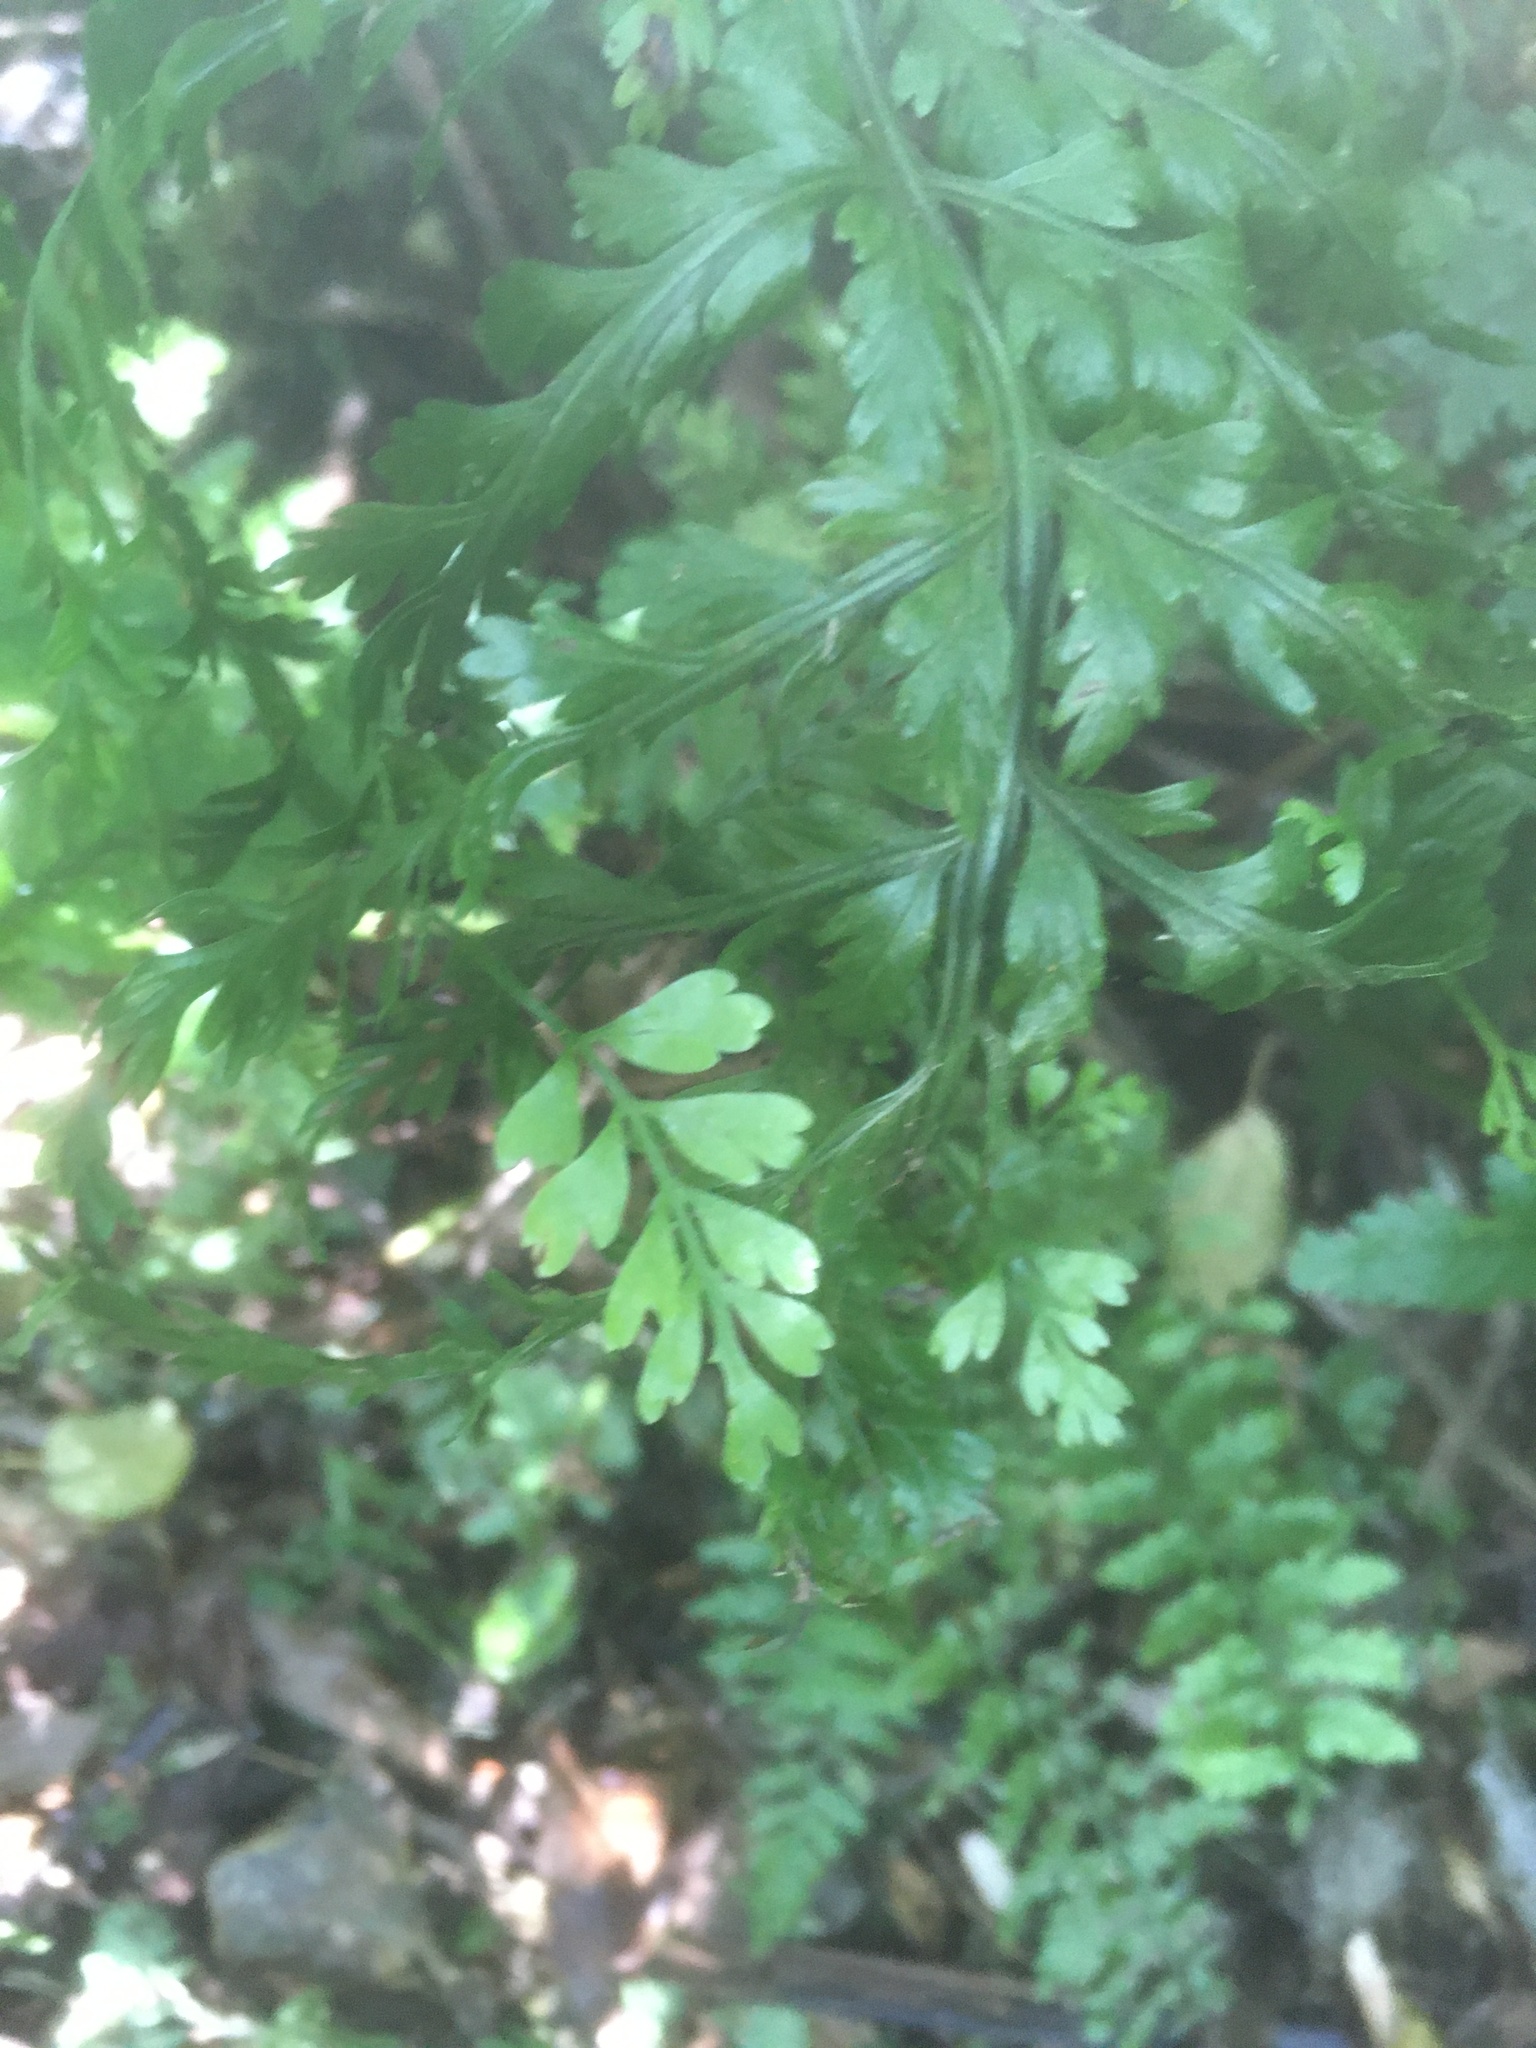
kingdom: Plantae
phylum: Tracheophyta
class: Polypodiopsida
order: Polypodiales
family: Aspleniaceae
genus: Asplenium
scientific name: Asplenium bulbiferum
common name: Mother fern
